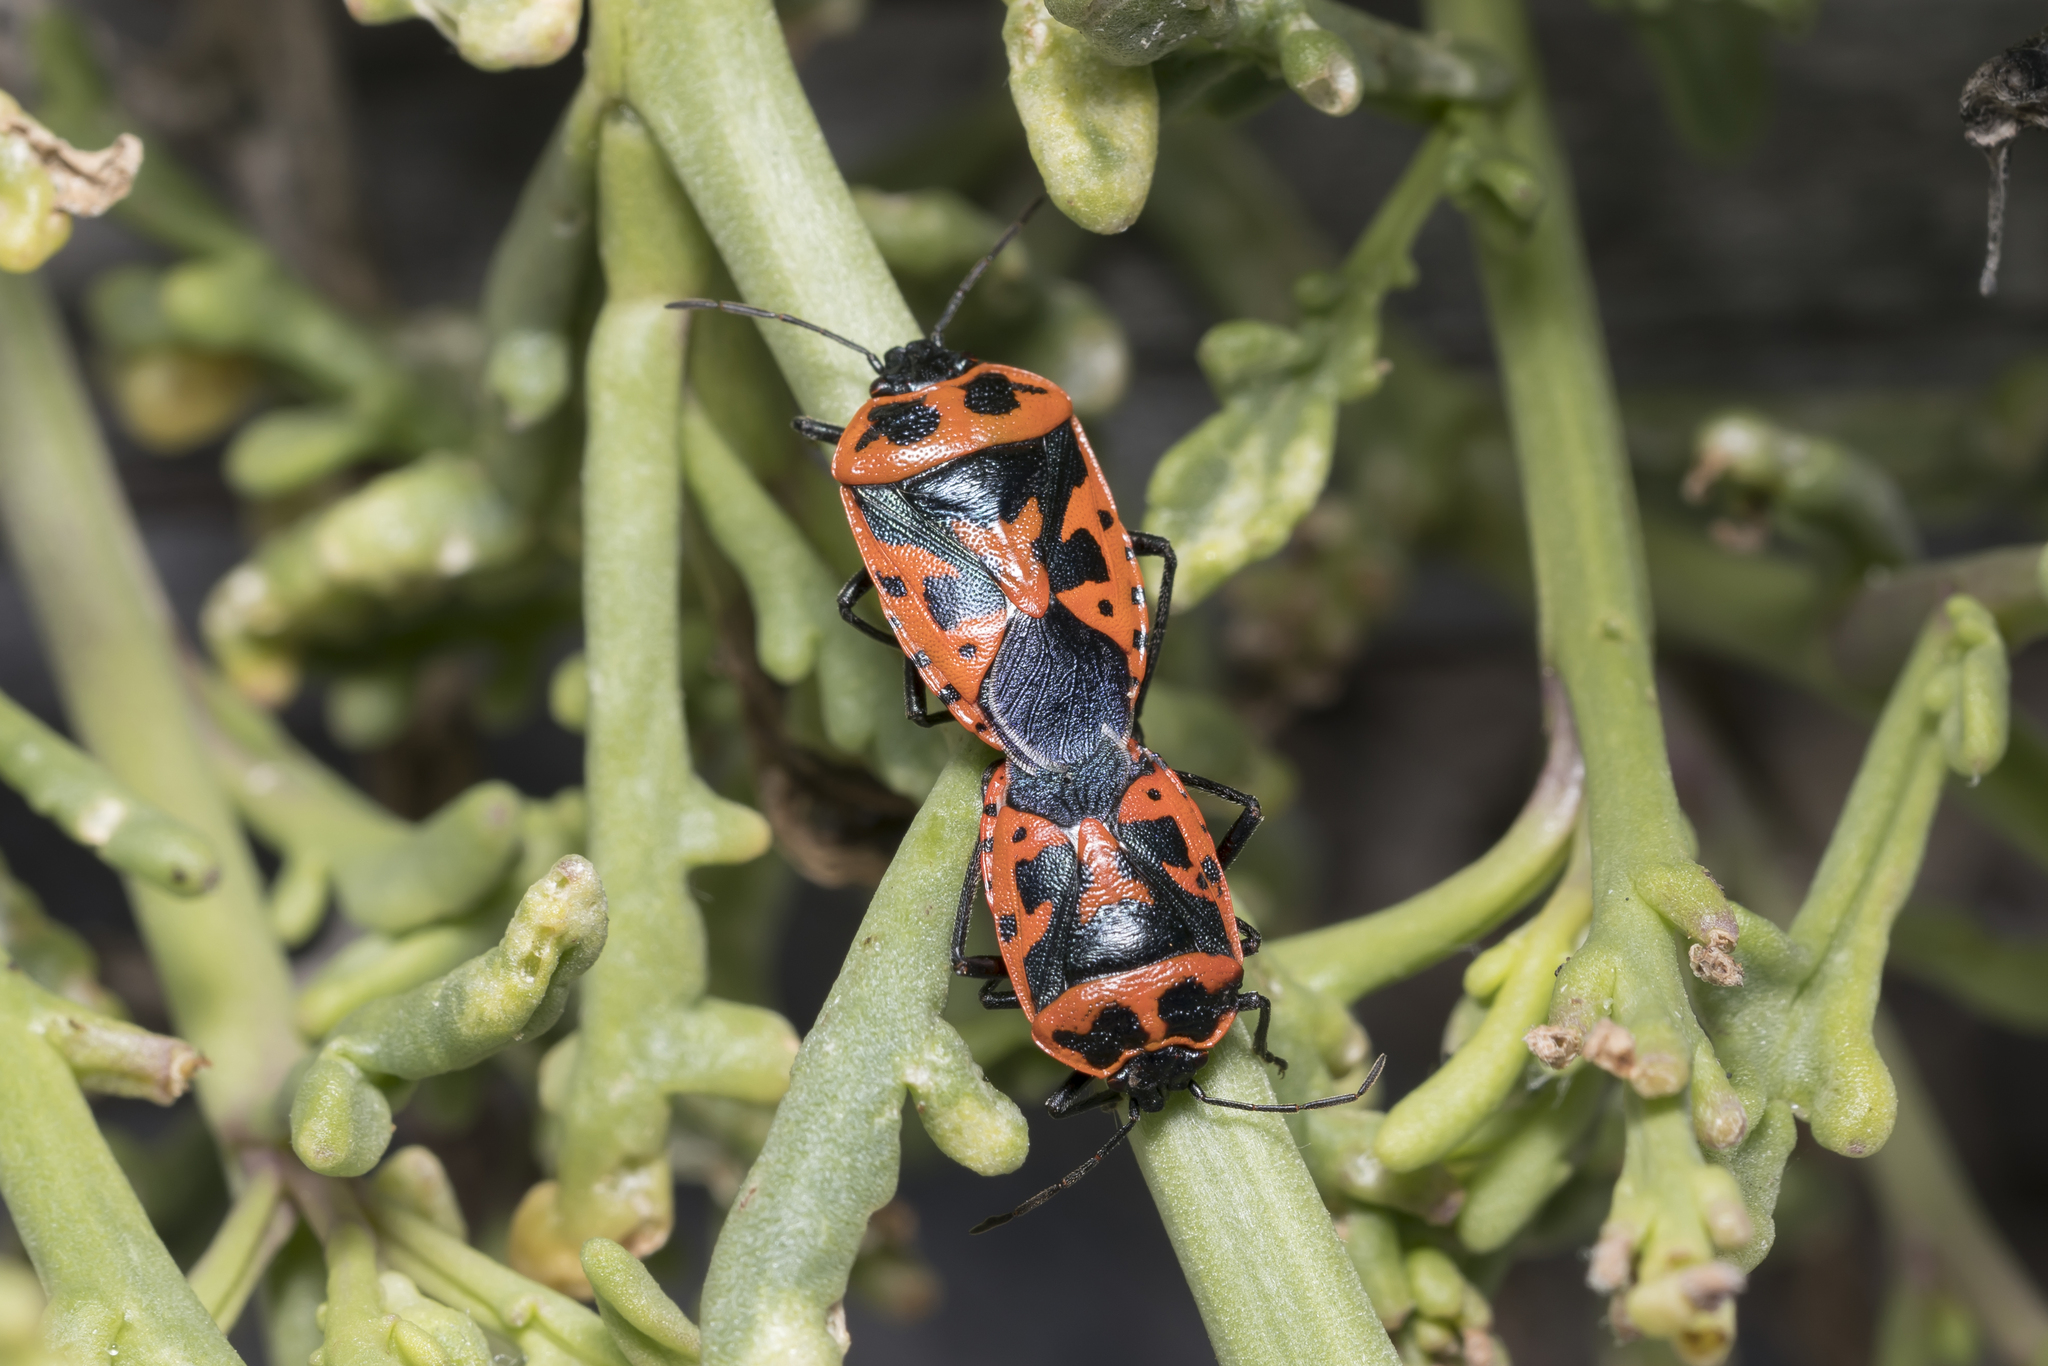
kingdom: Animalia
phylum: Arthropoda
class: Insecta
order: Hemiptera
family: Pentatomidae
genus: Eurydema
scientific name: Eurydema spectabilis
